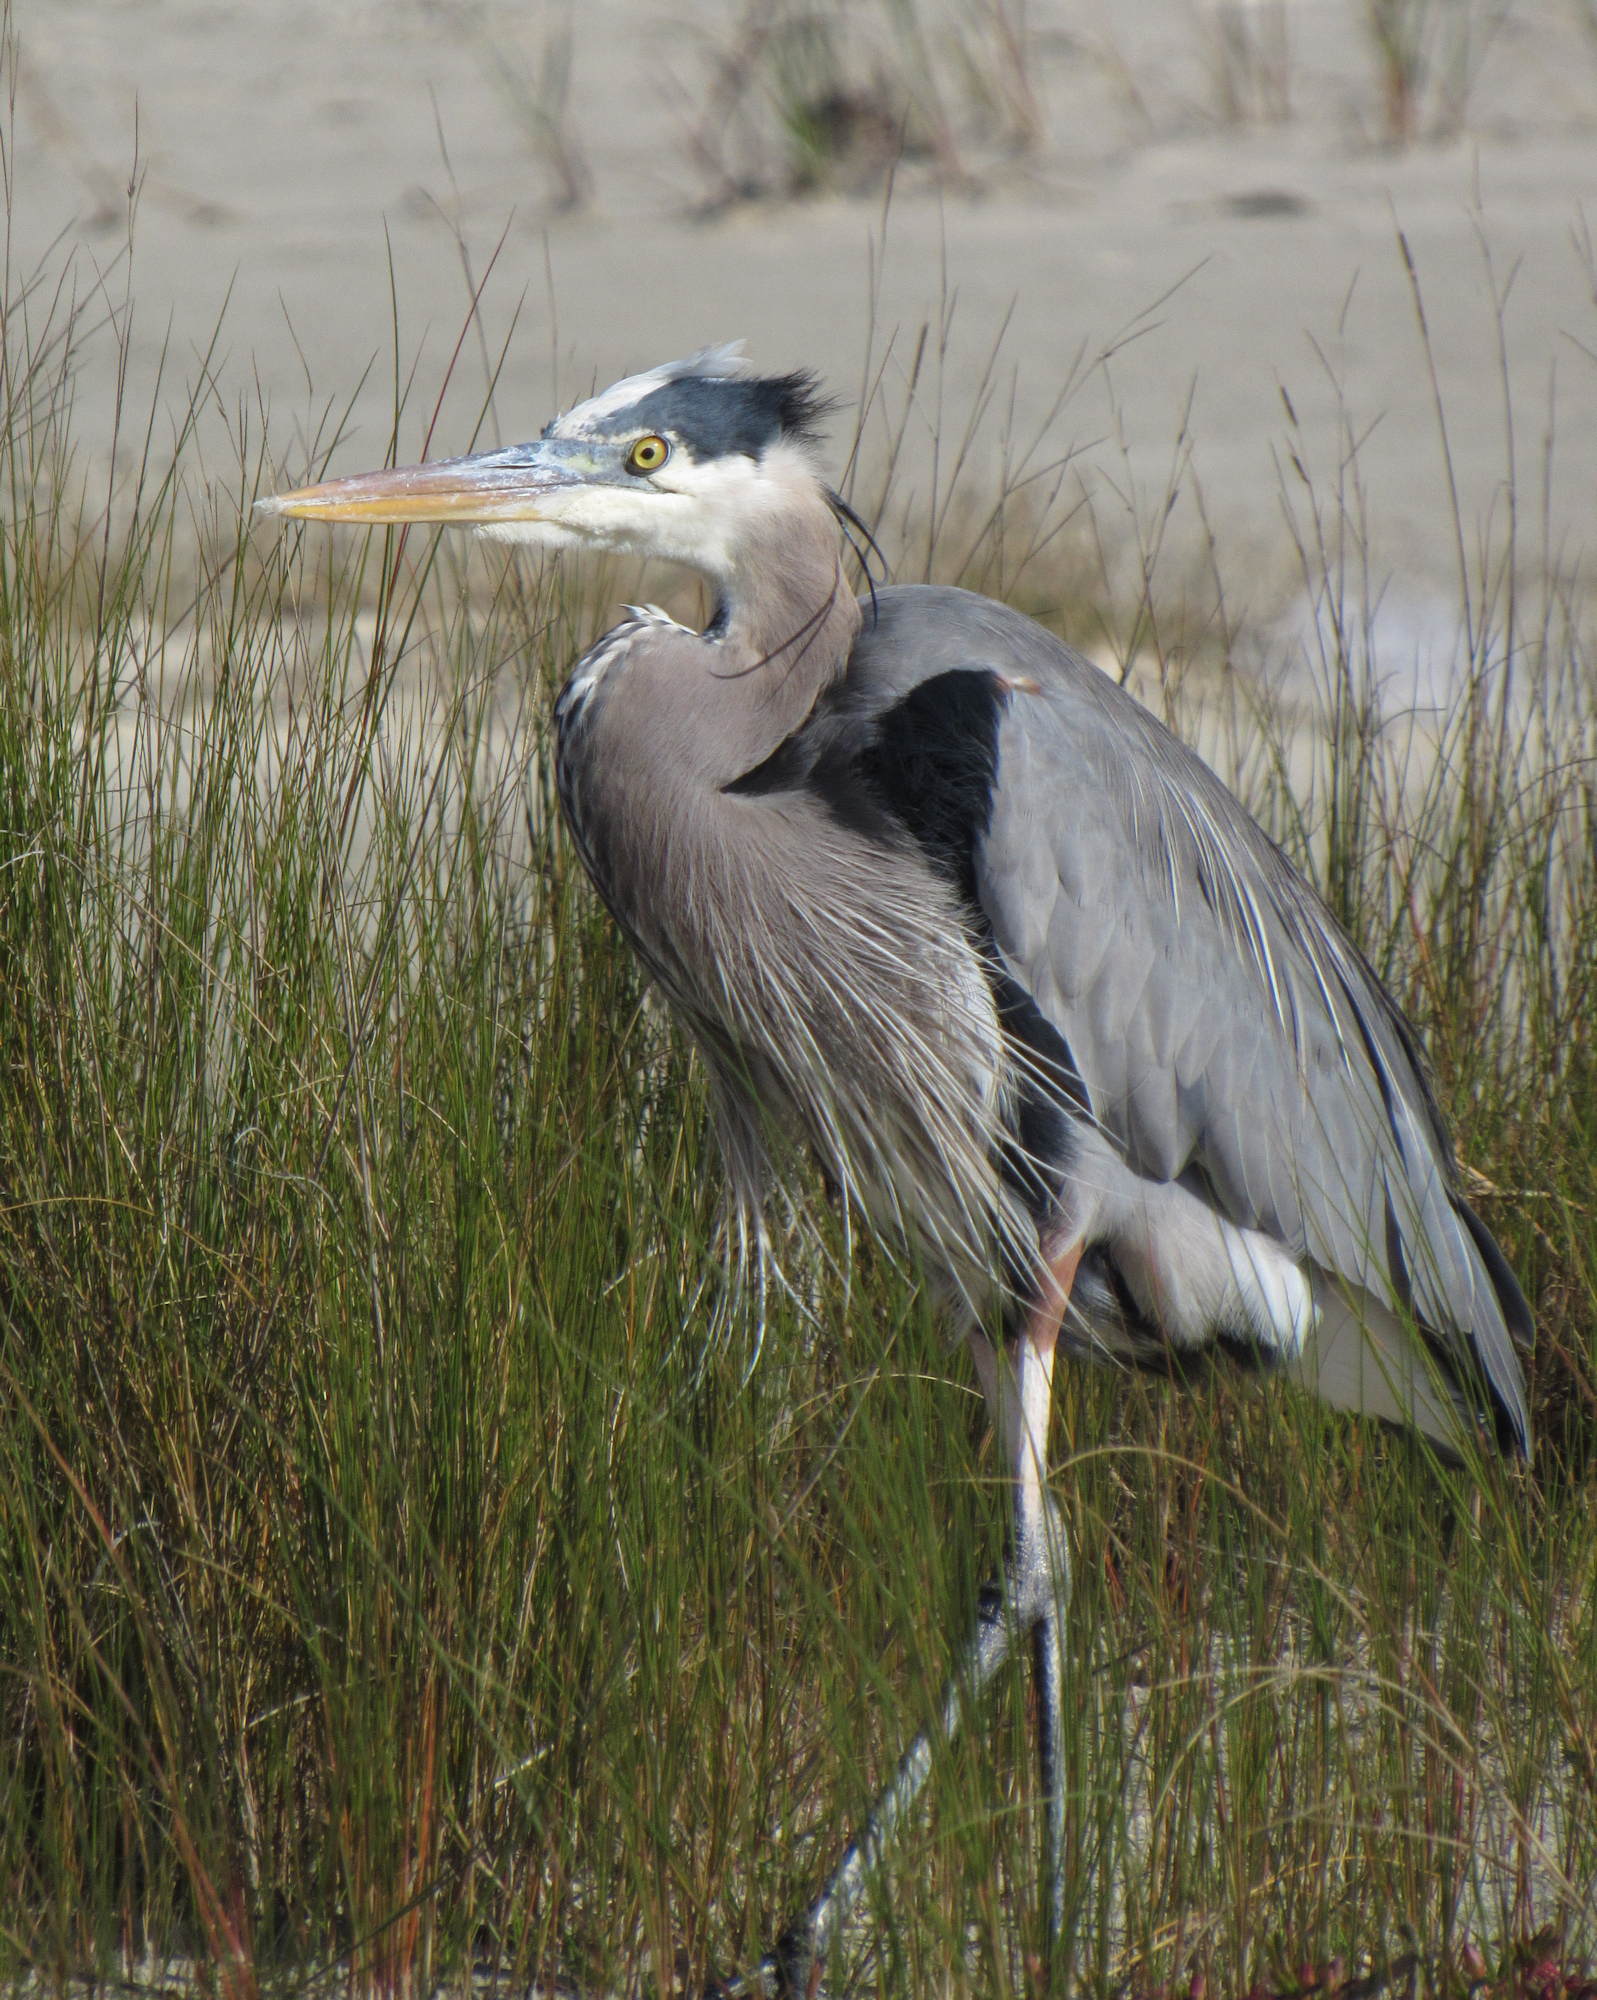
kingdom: Animalia
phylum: Chordata
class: Aves
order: Pelecaniformes
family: Ardeidae
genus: Ardea
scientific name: Ardea herodias
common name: Great blue heron
